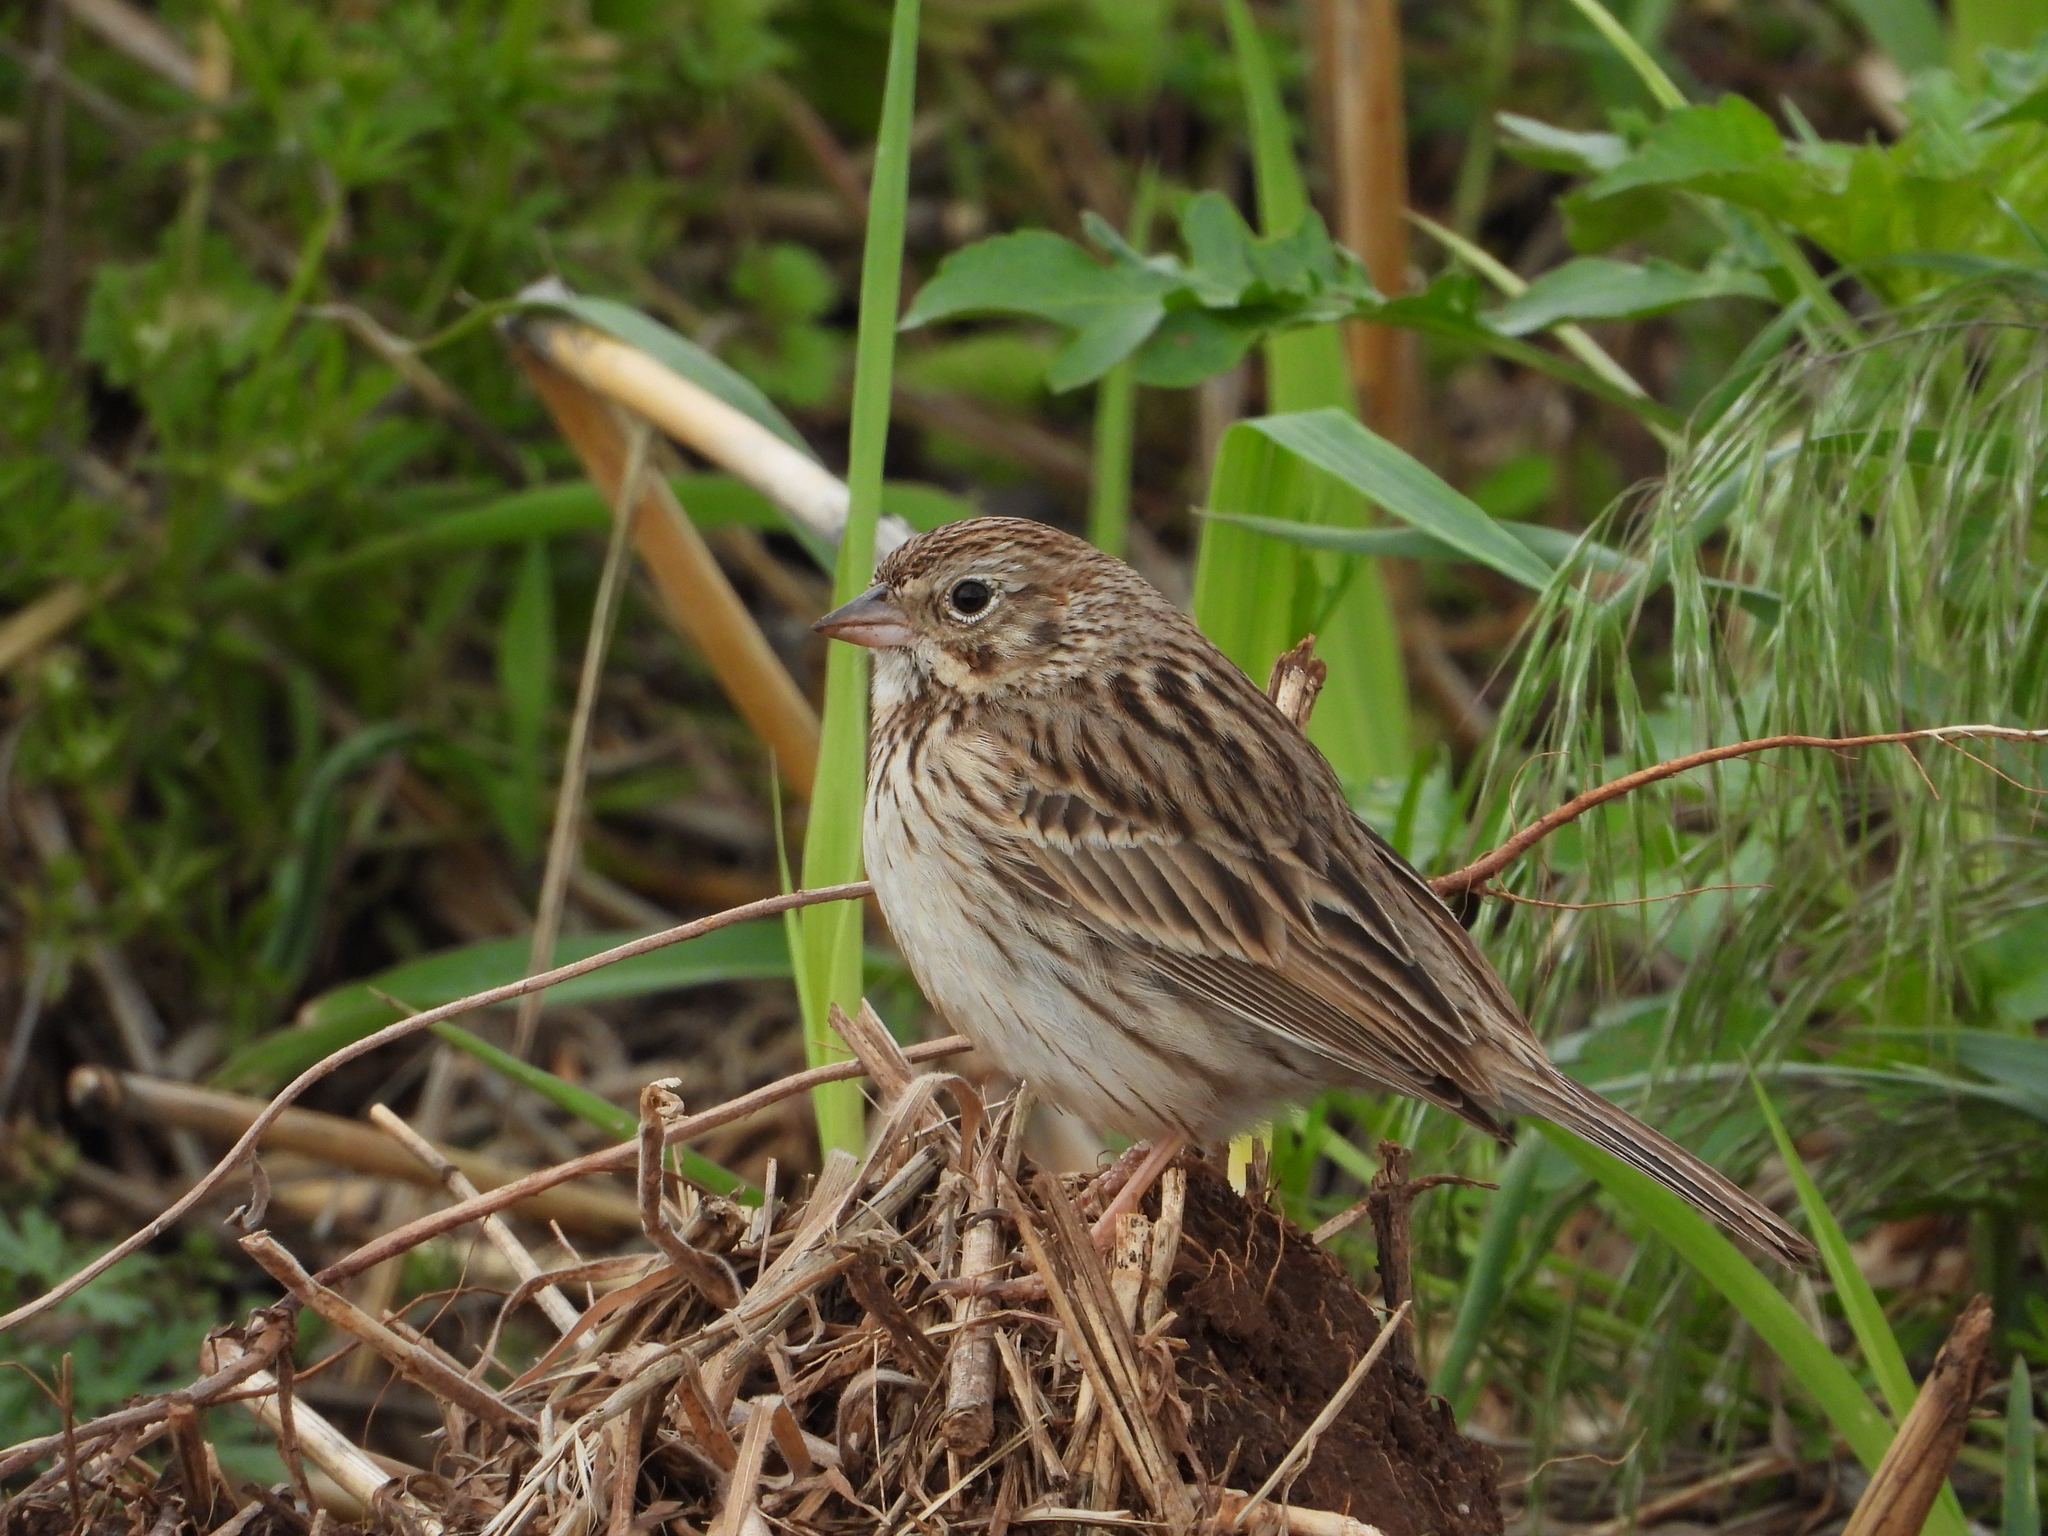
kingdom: Animalia
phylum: Chordata
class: Aves
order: Passeriformes
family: Passerellidae
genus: Pooecetes
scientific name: Pooecetes gramineus
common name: Vesper sparrow
